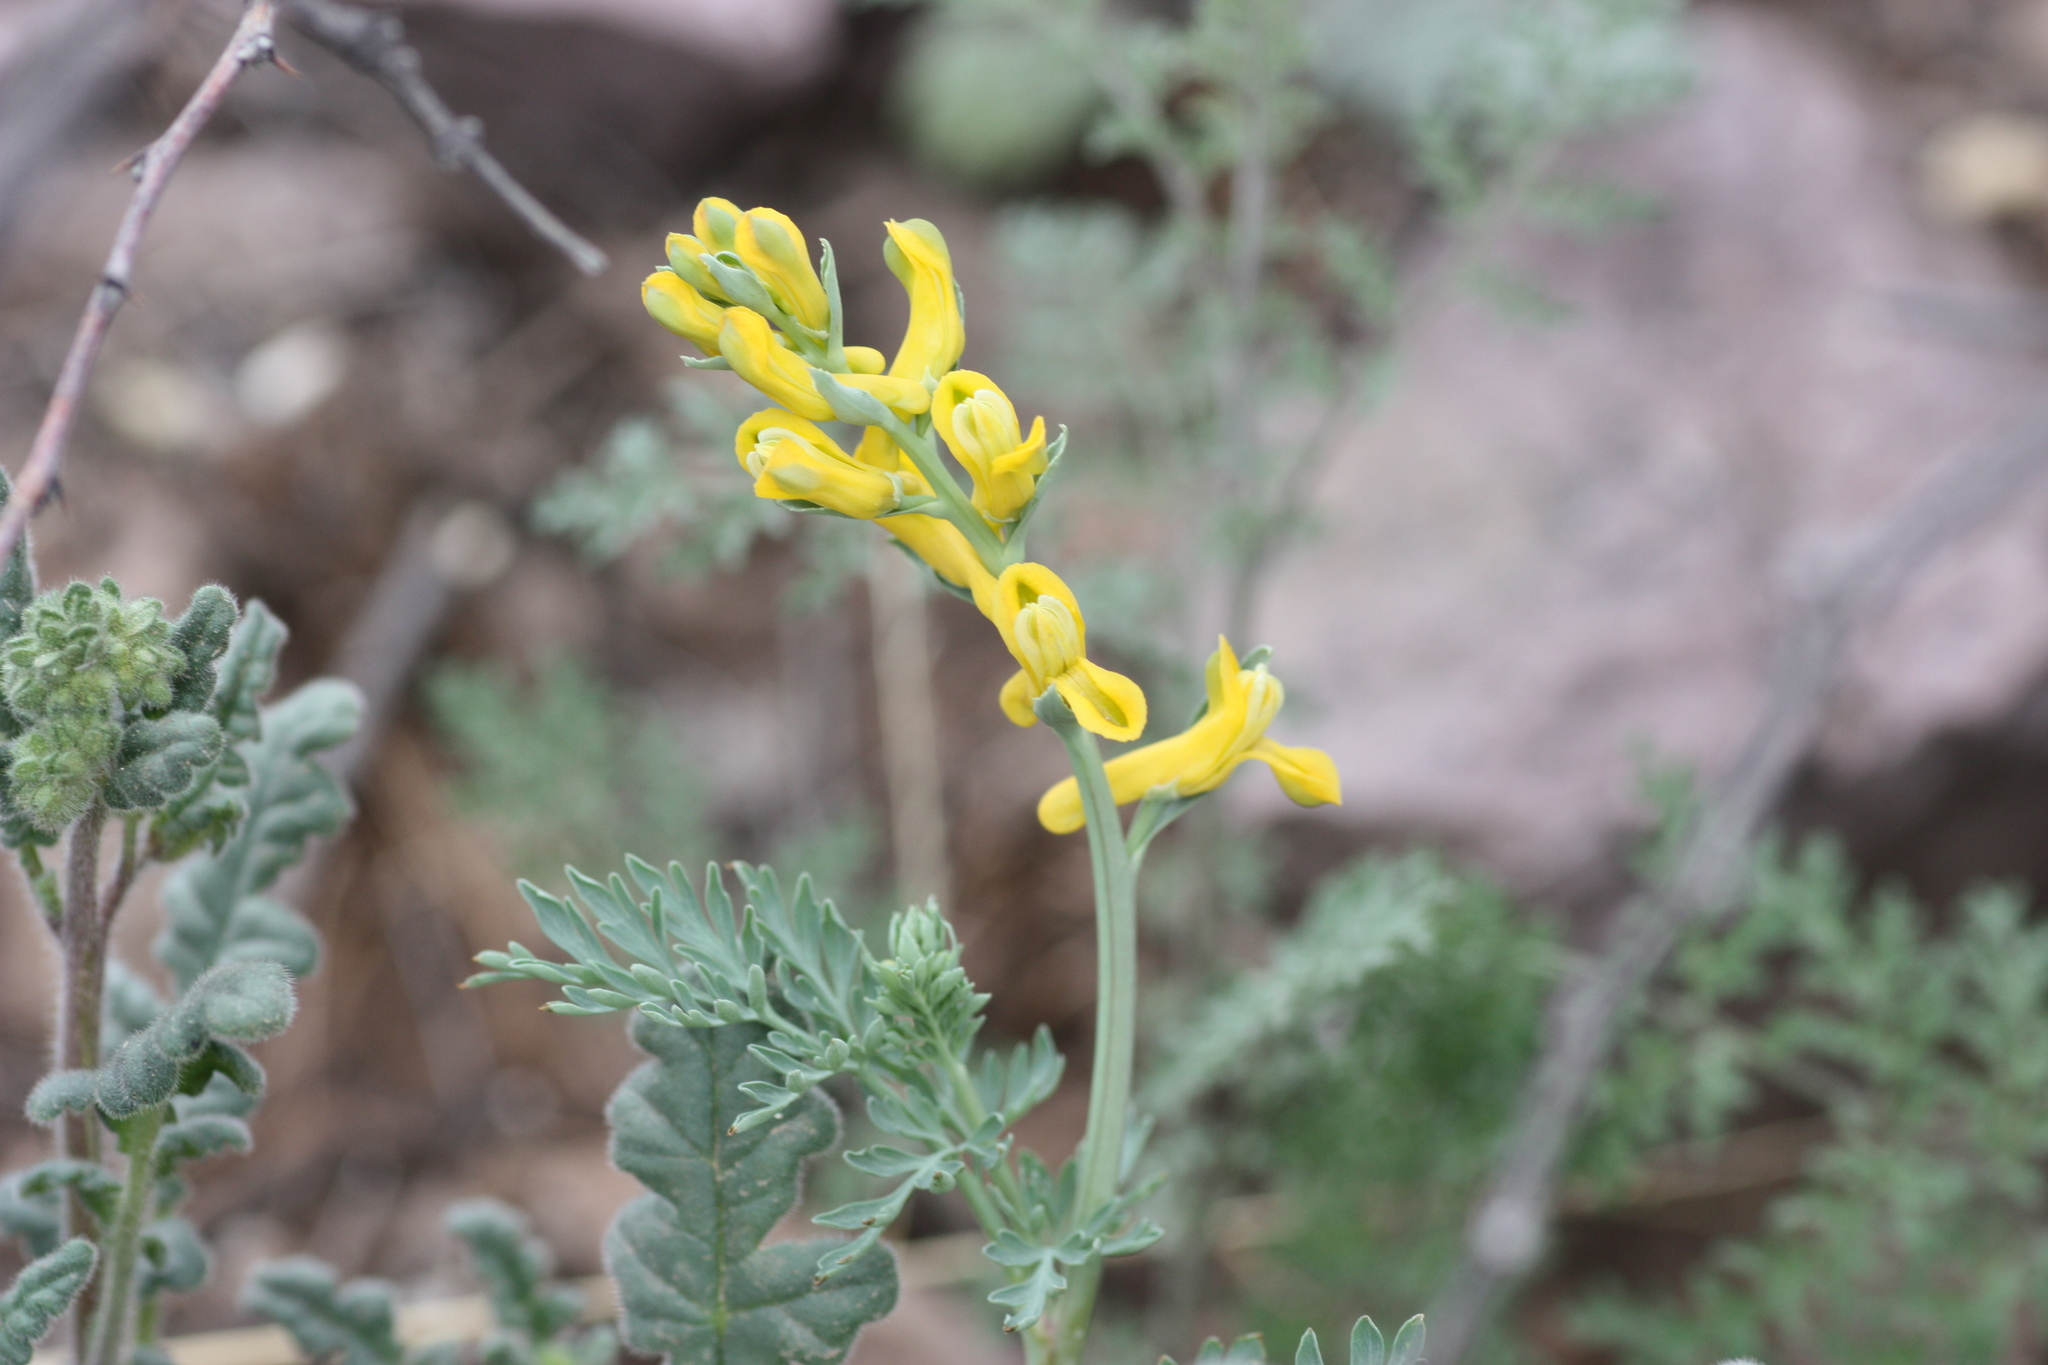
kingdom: Plantae
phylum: Tracheophyta
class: Magnoliopsida
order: Ranunculales
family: Papaveraceae
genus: Corydalis
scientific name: Corydalis aurea
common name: Golden corydalis
